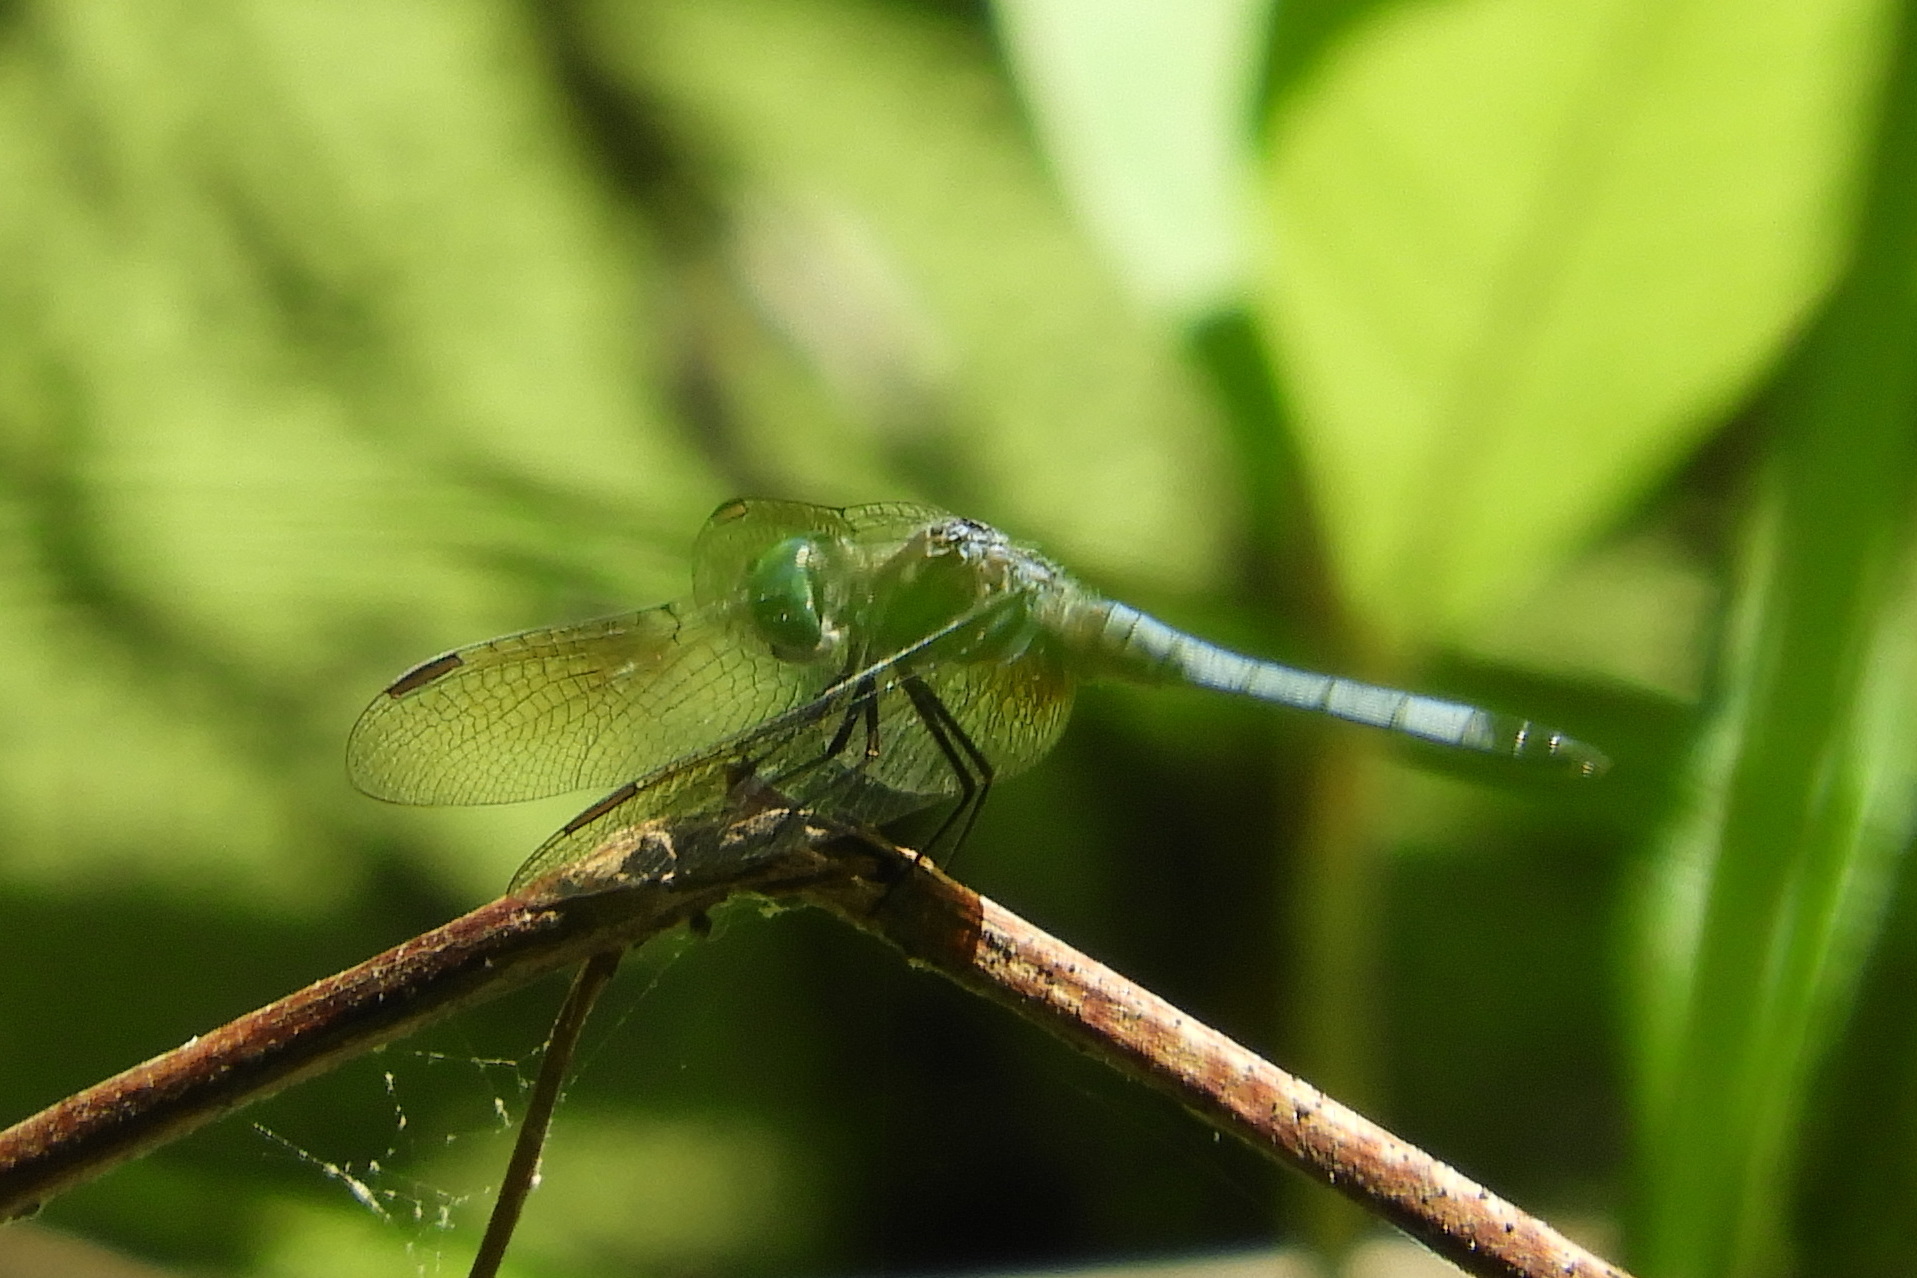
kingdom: Animalia
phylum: Arthropoda
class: Insecta
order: Odonata
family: Libellulidae
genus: Pachydiplax
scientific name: Pachydiplax longipennis
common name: Blue dasher
